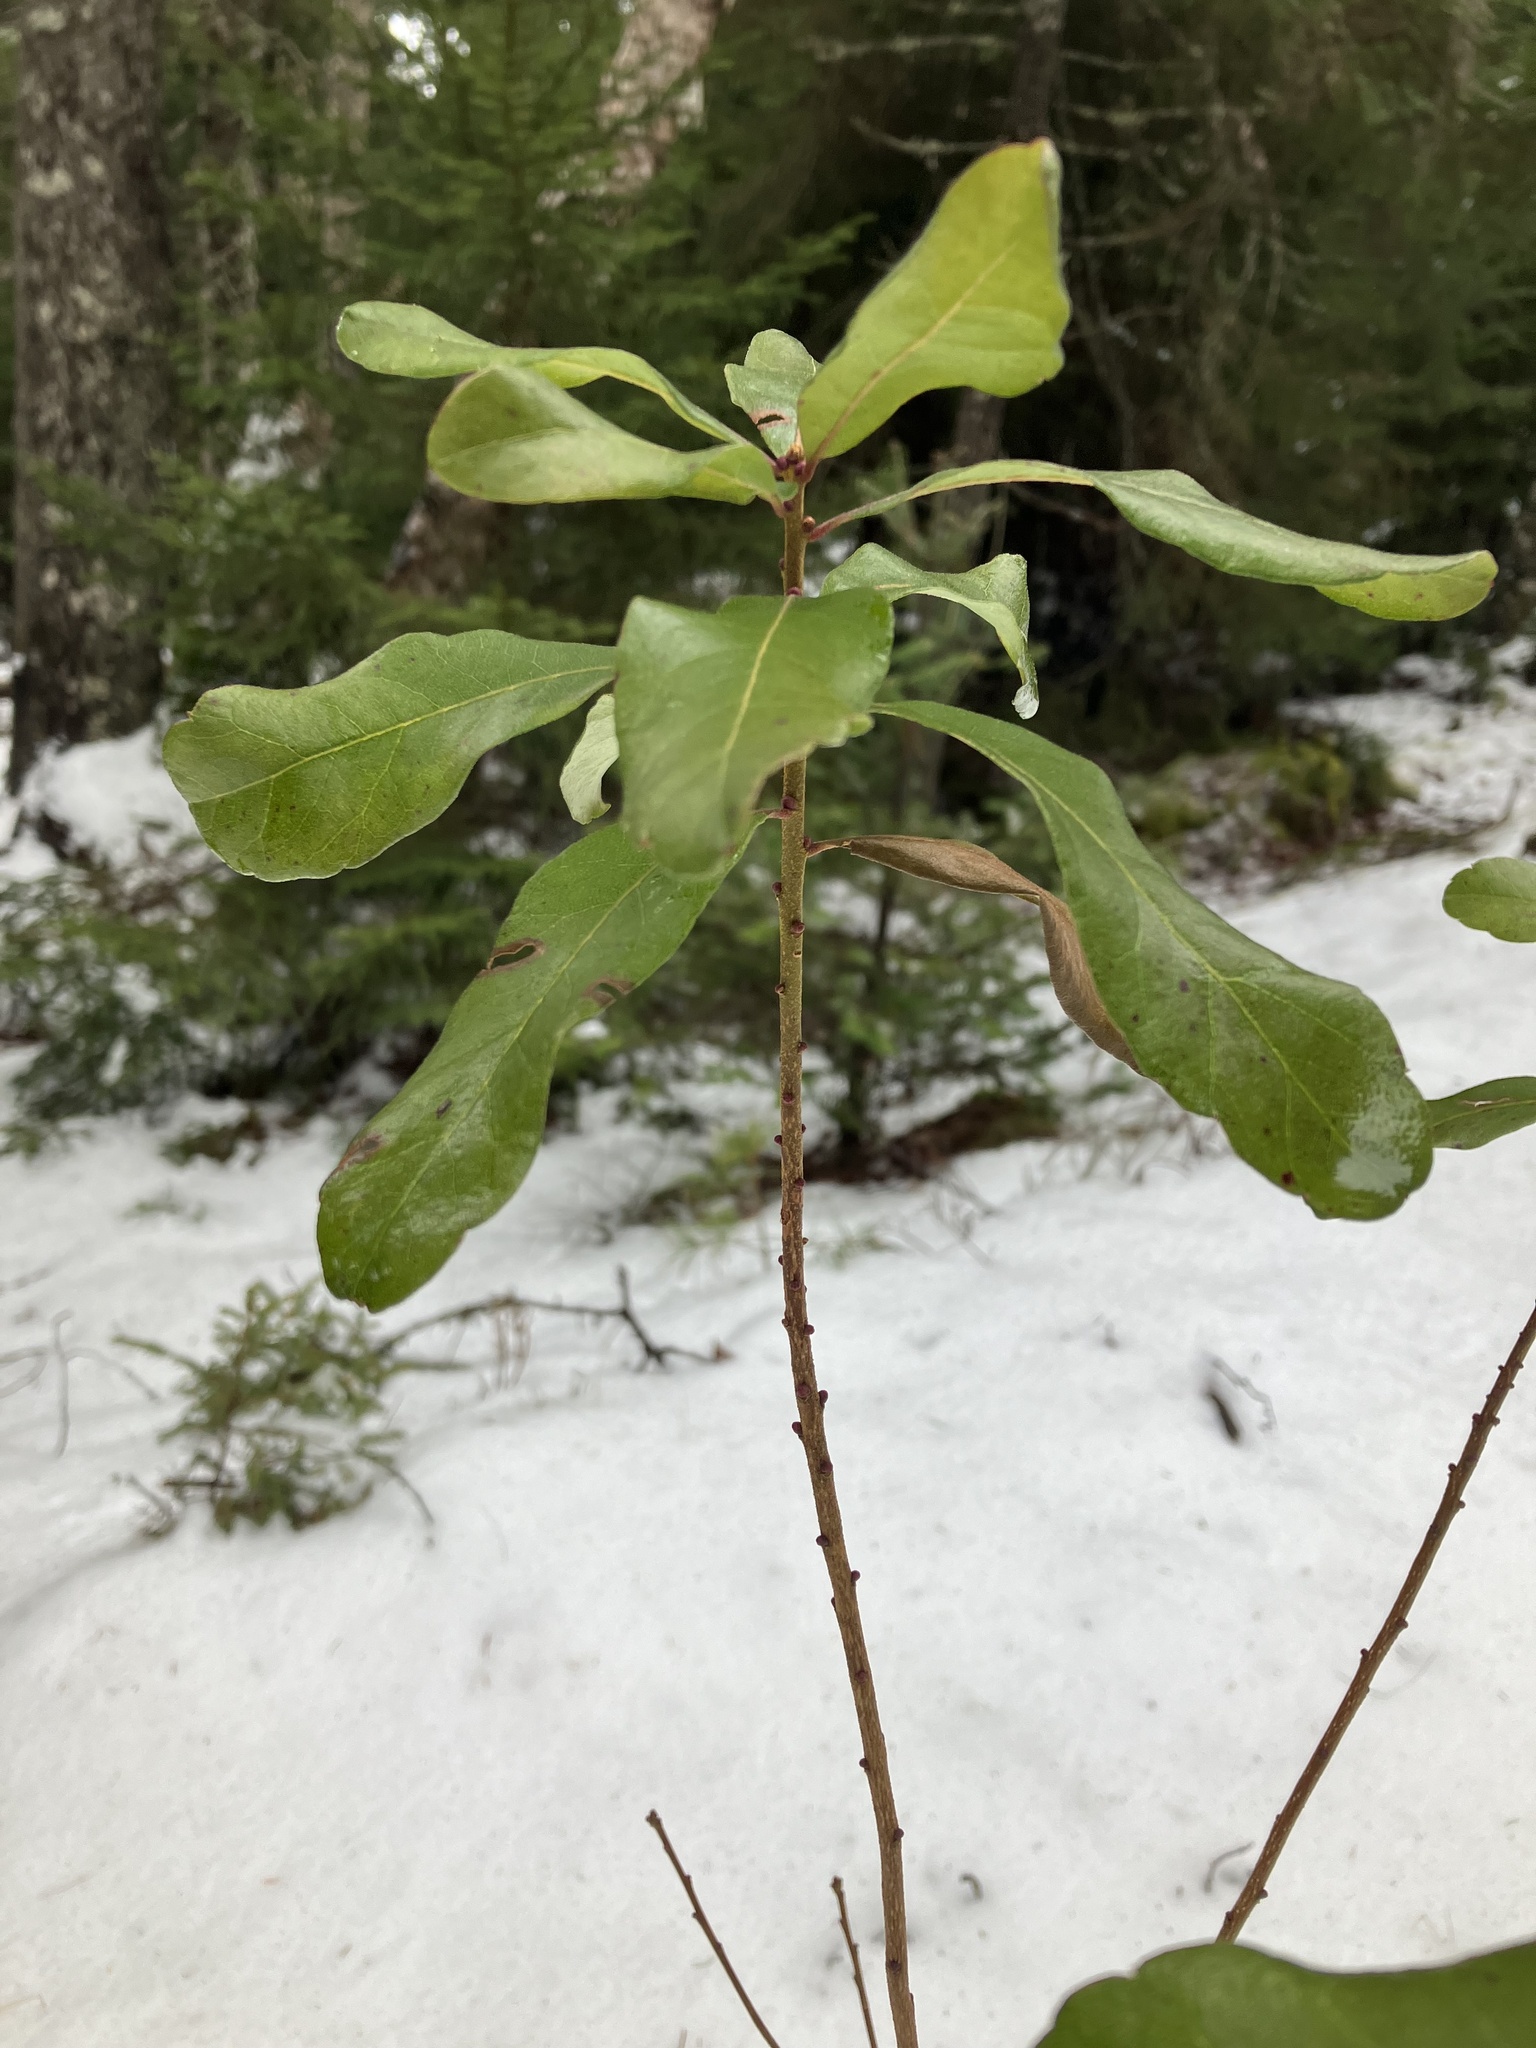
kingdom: Plantae
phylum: Tracheophyta
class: Magnoliopsida
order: Fagales
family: Myricaceae
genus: Morella
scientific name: Morella pensylvanica
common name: Northern bayberry
